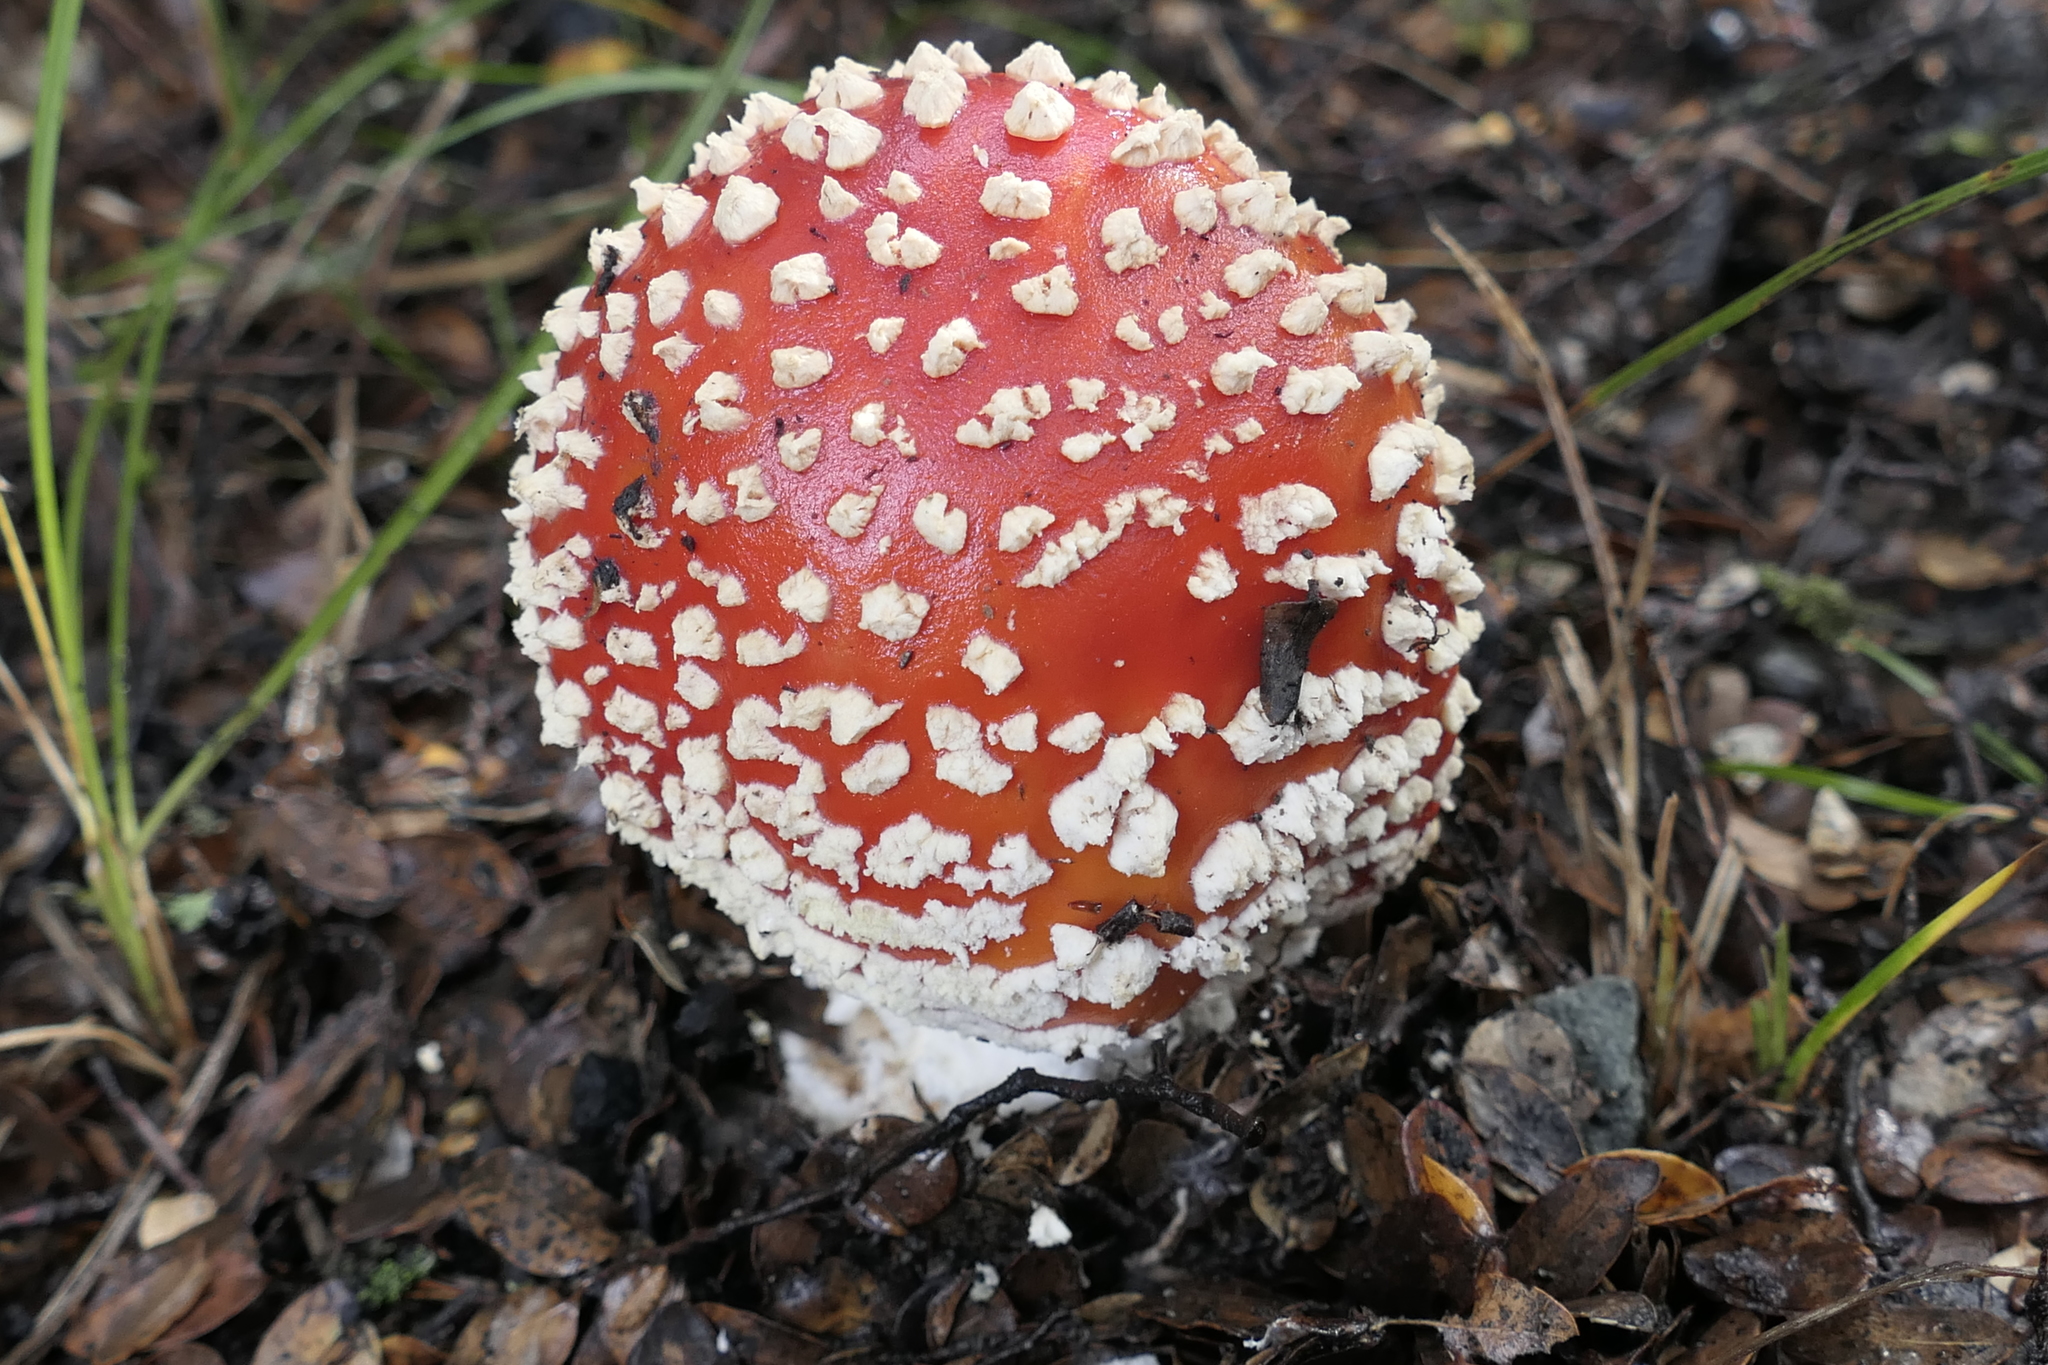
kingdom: Fungi
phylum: Basidiomycota
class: Agaricomycetes
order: Agaricales
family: Amanitaceae
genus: Amanita
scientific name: Amanita muscaria
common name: Fly agaric
